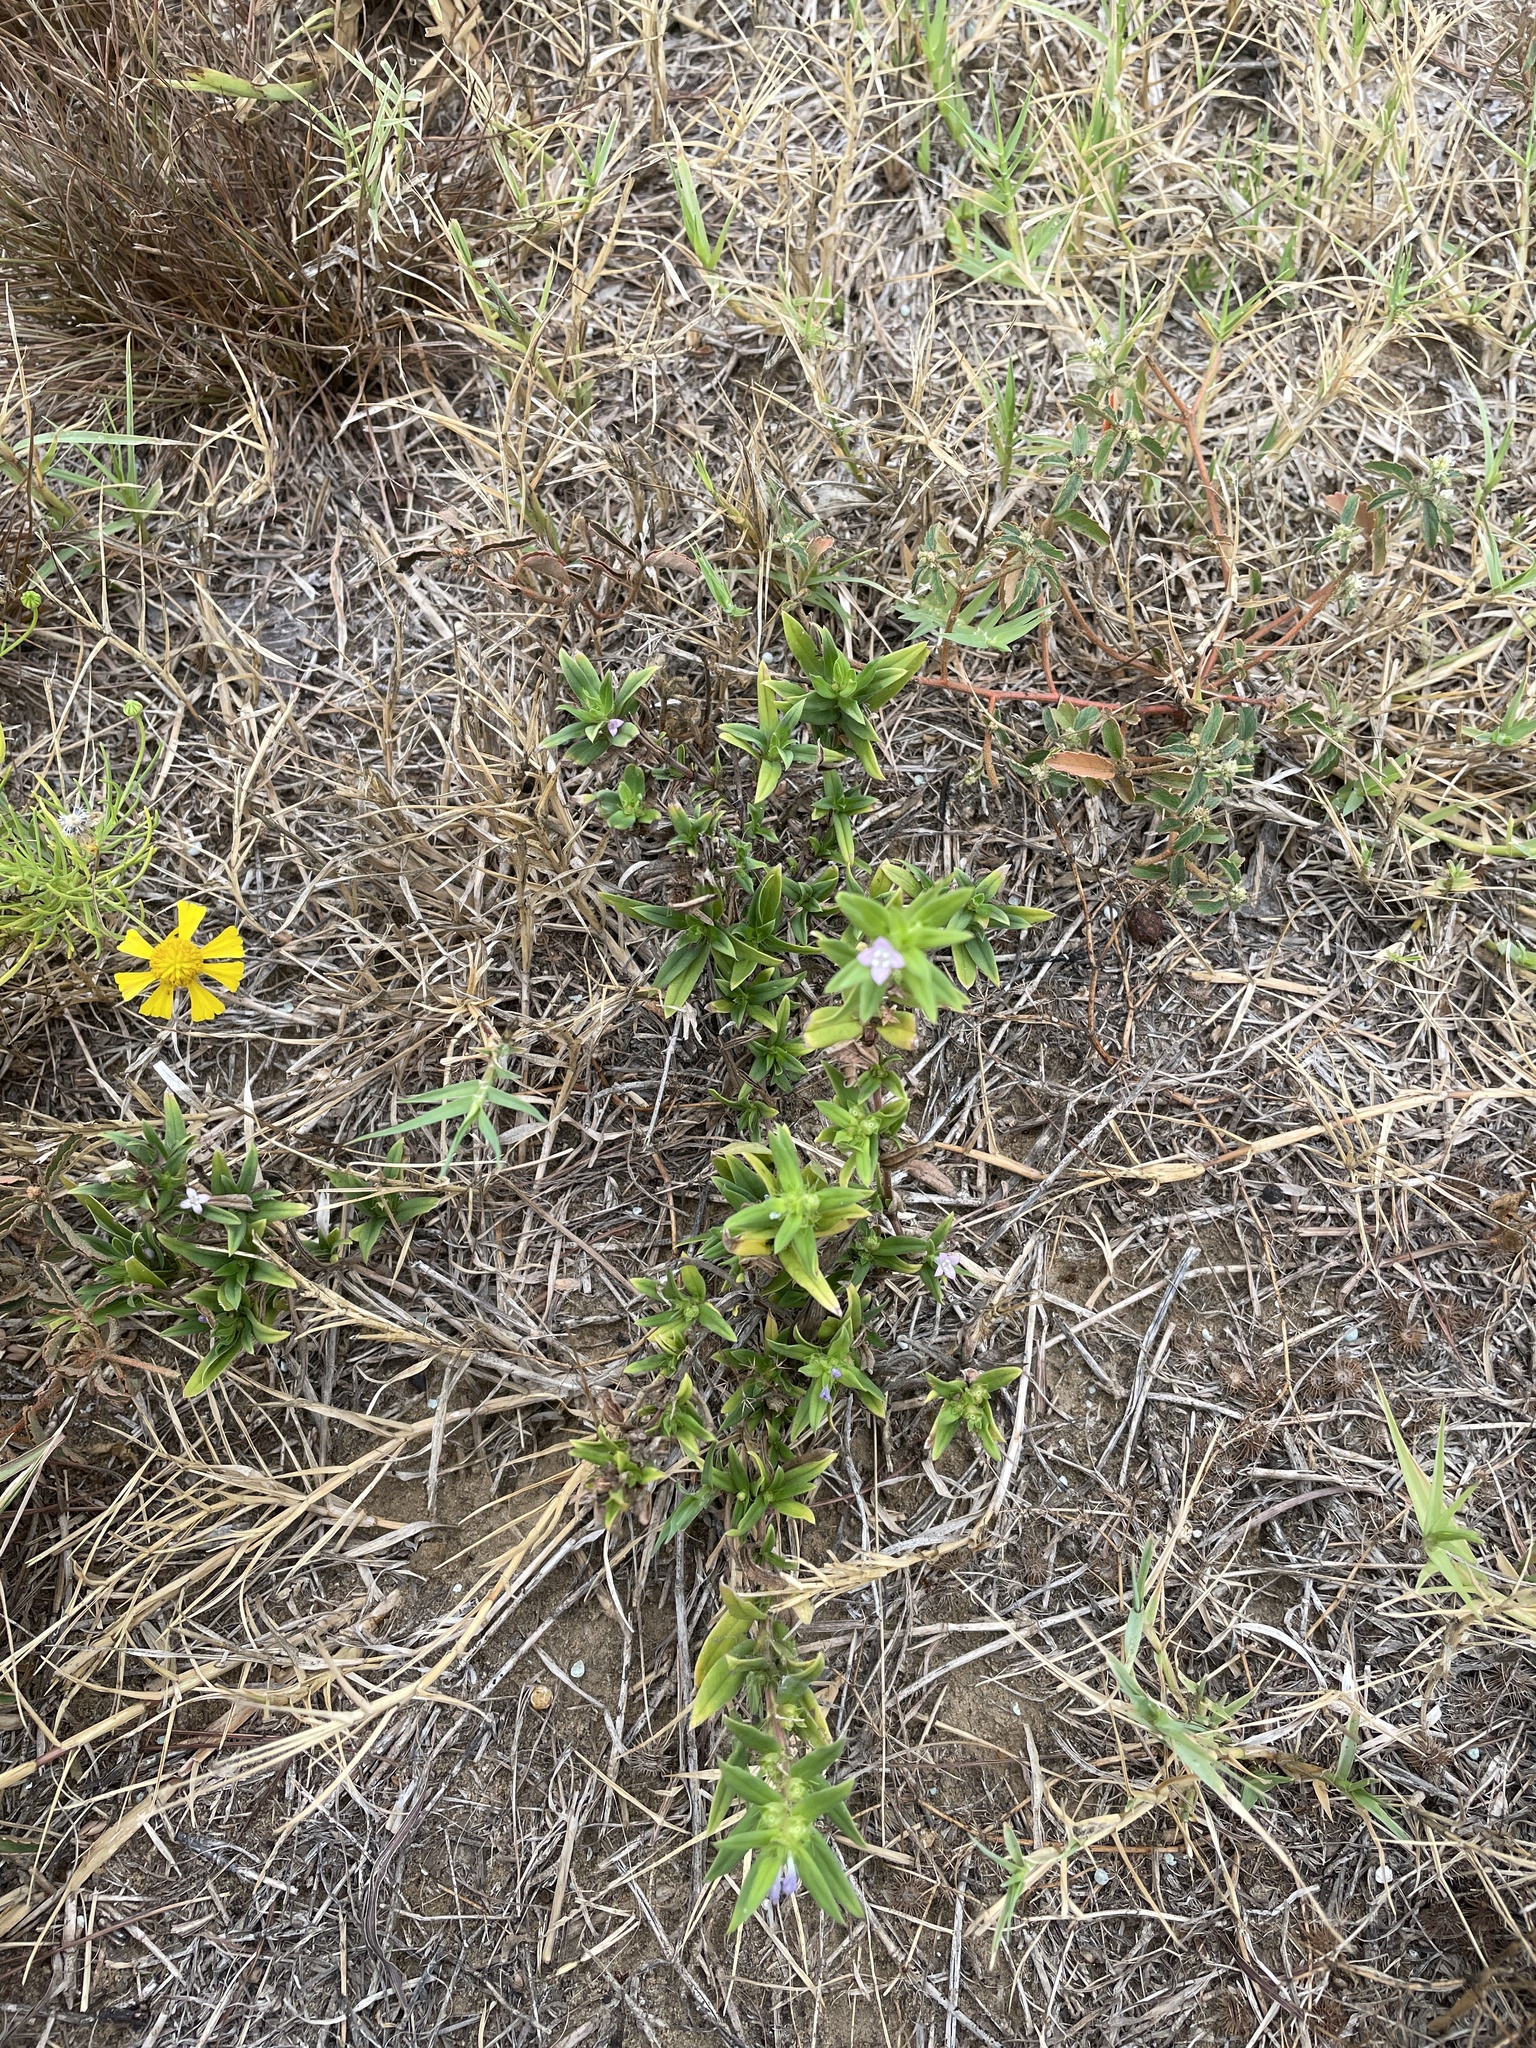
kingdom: Plantae
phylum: Tracheophyta
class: Magnoliopsida
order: Gentianales
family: Rubiaceae
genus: Hexasepalum
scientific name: Hexasepalum teres
